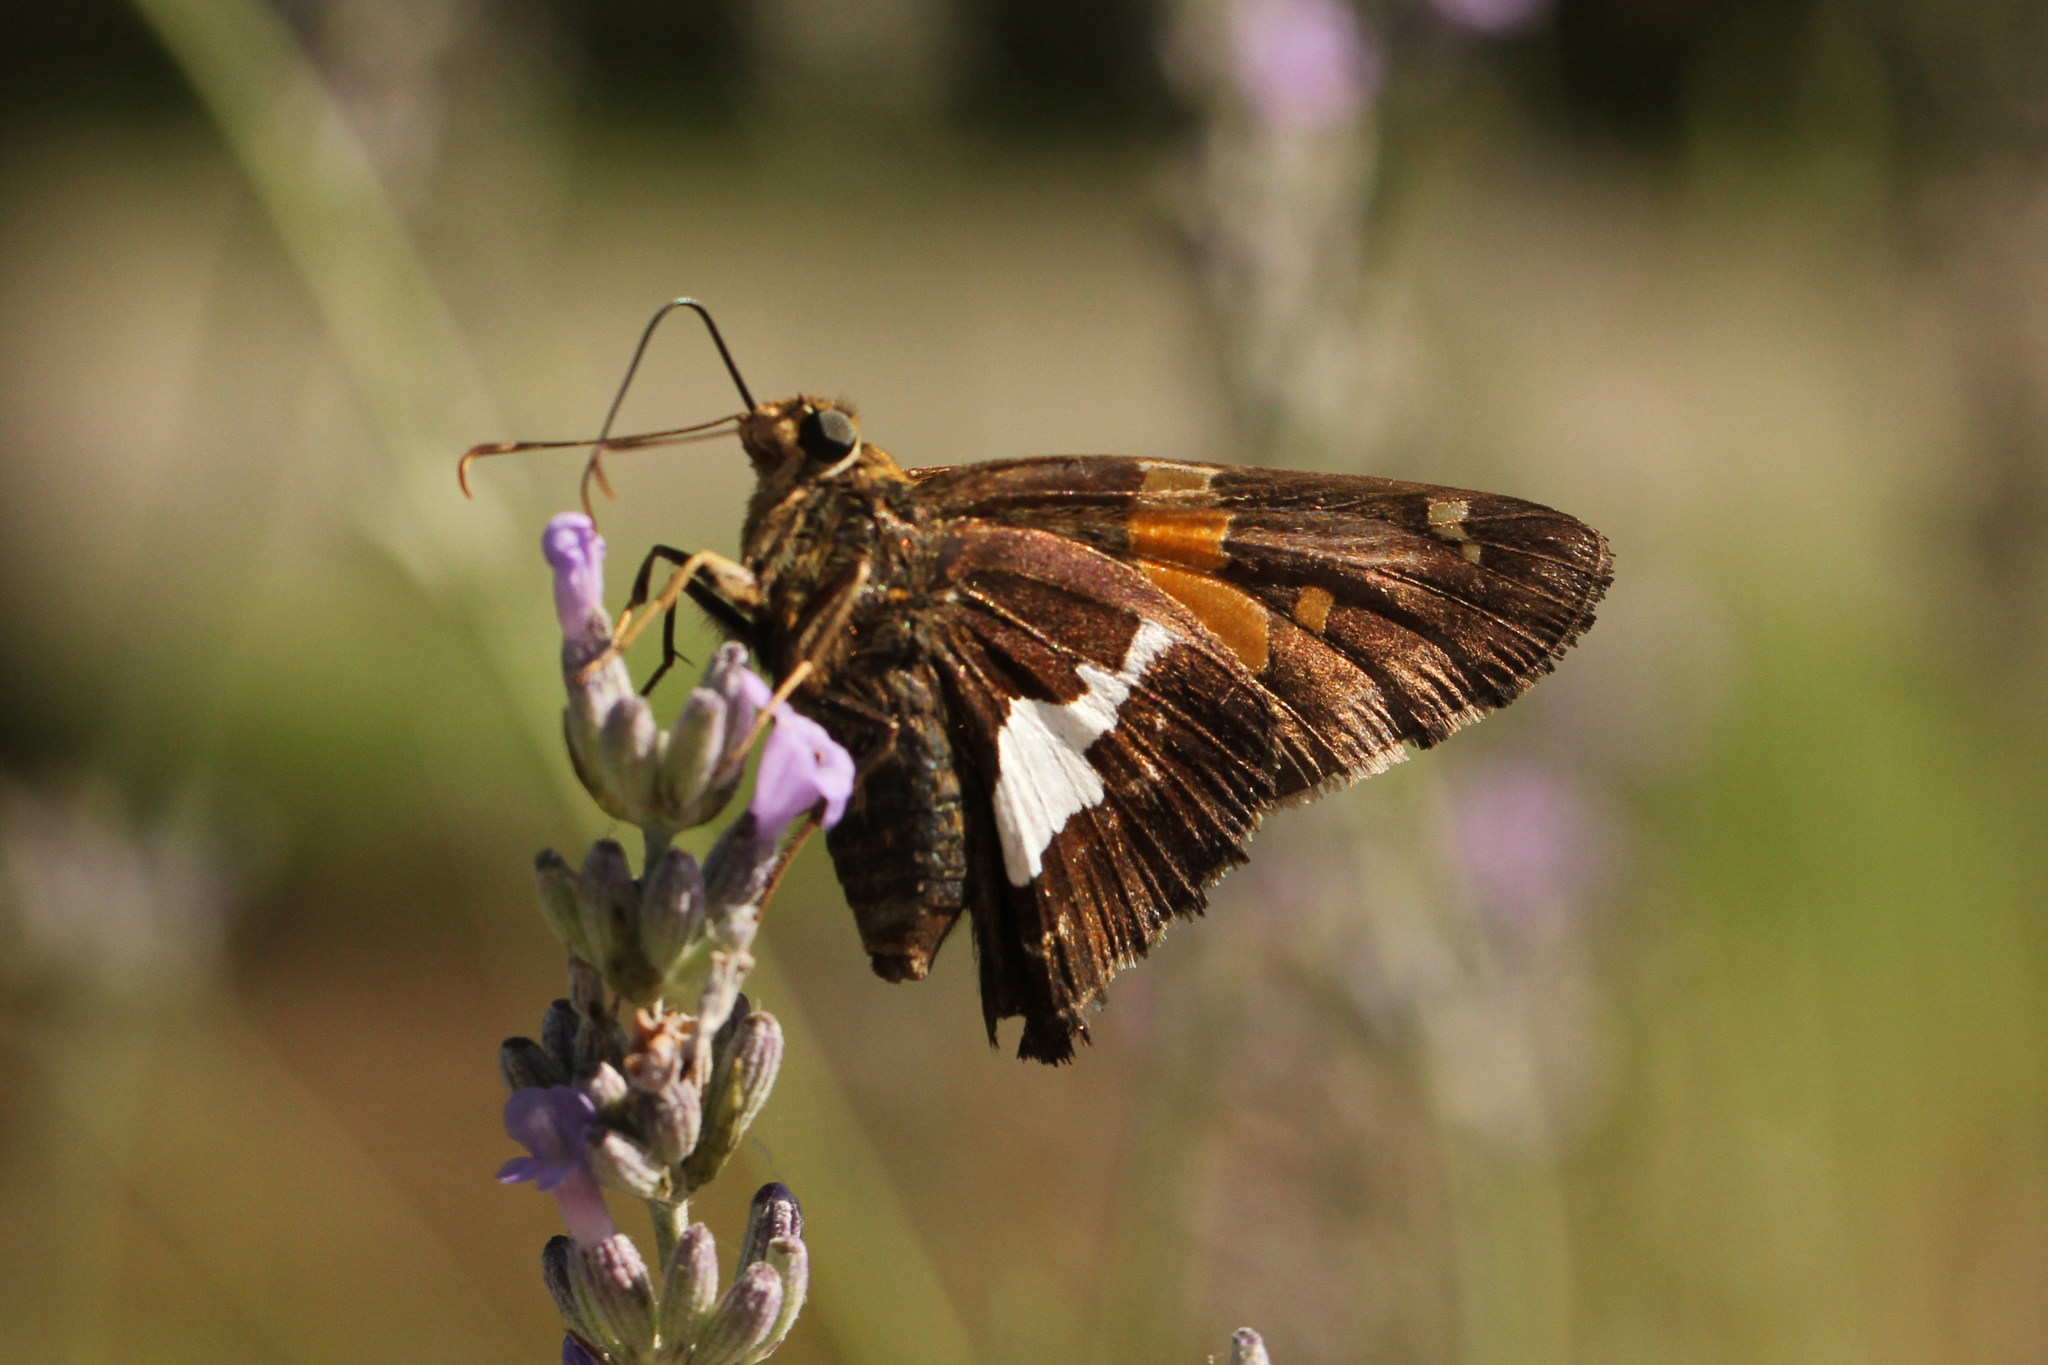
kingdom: Animalia
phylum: Arthropoda
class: Insecta
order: Lepidoptera
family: Hesperiidae
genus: Epargyreus
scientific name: Epargyreus clarus
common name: Silver-spotted skipper
